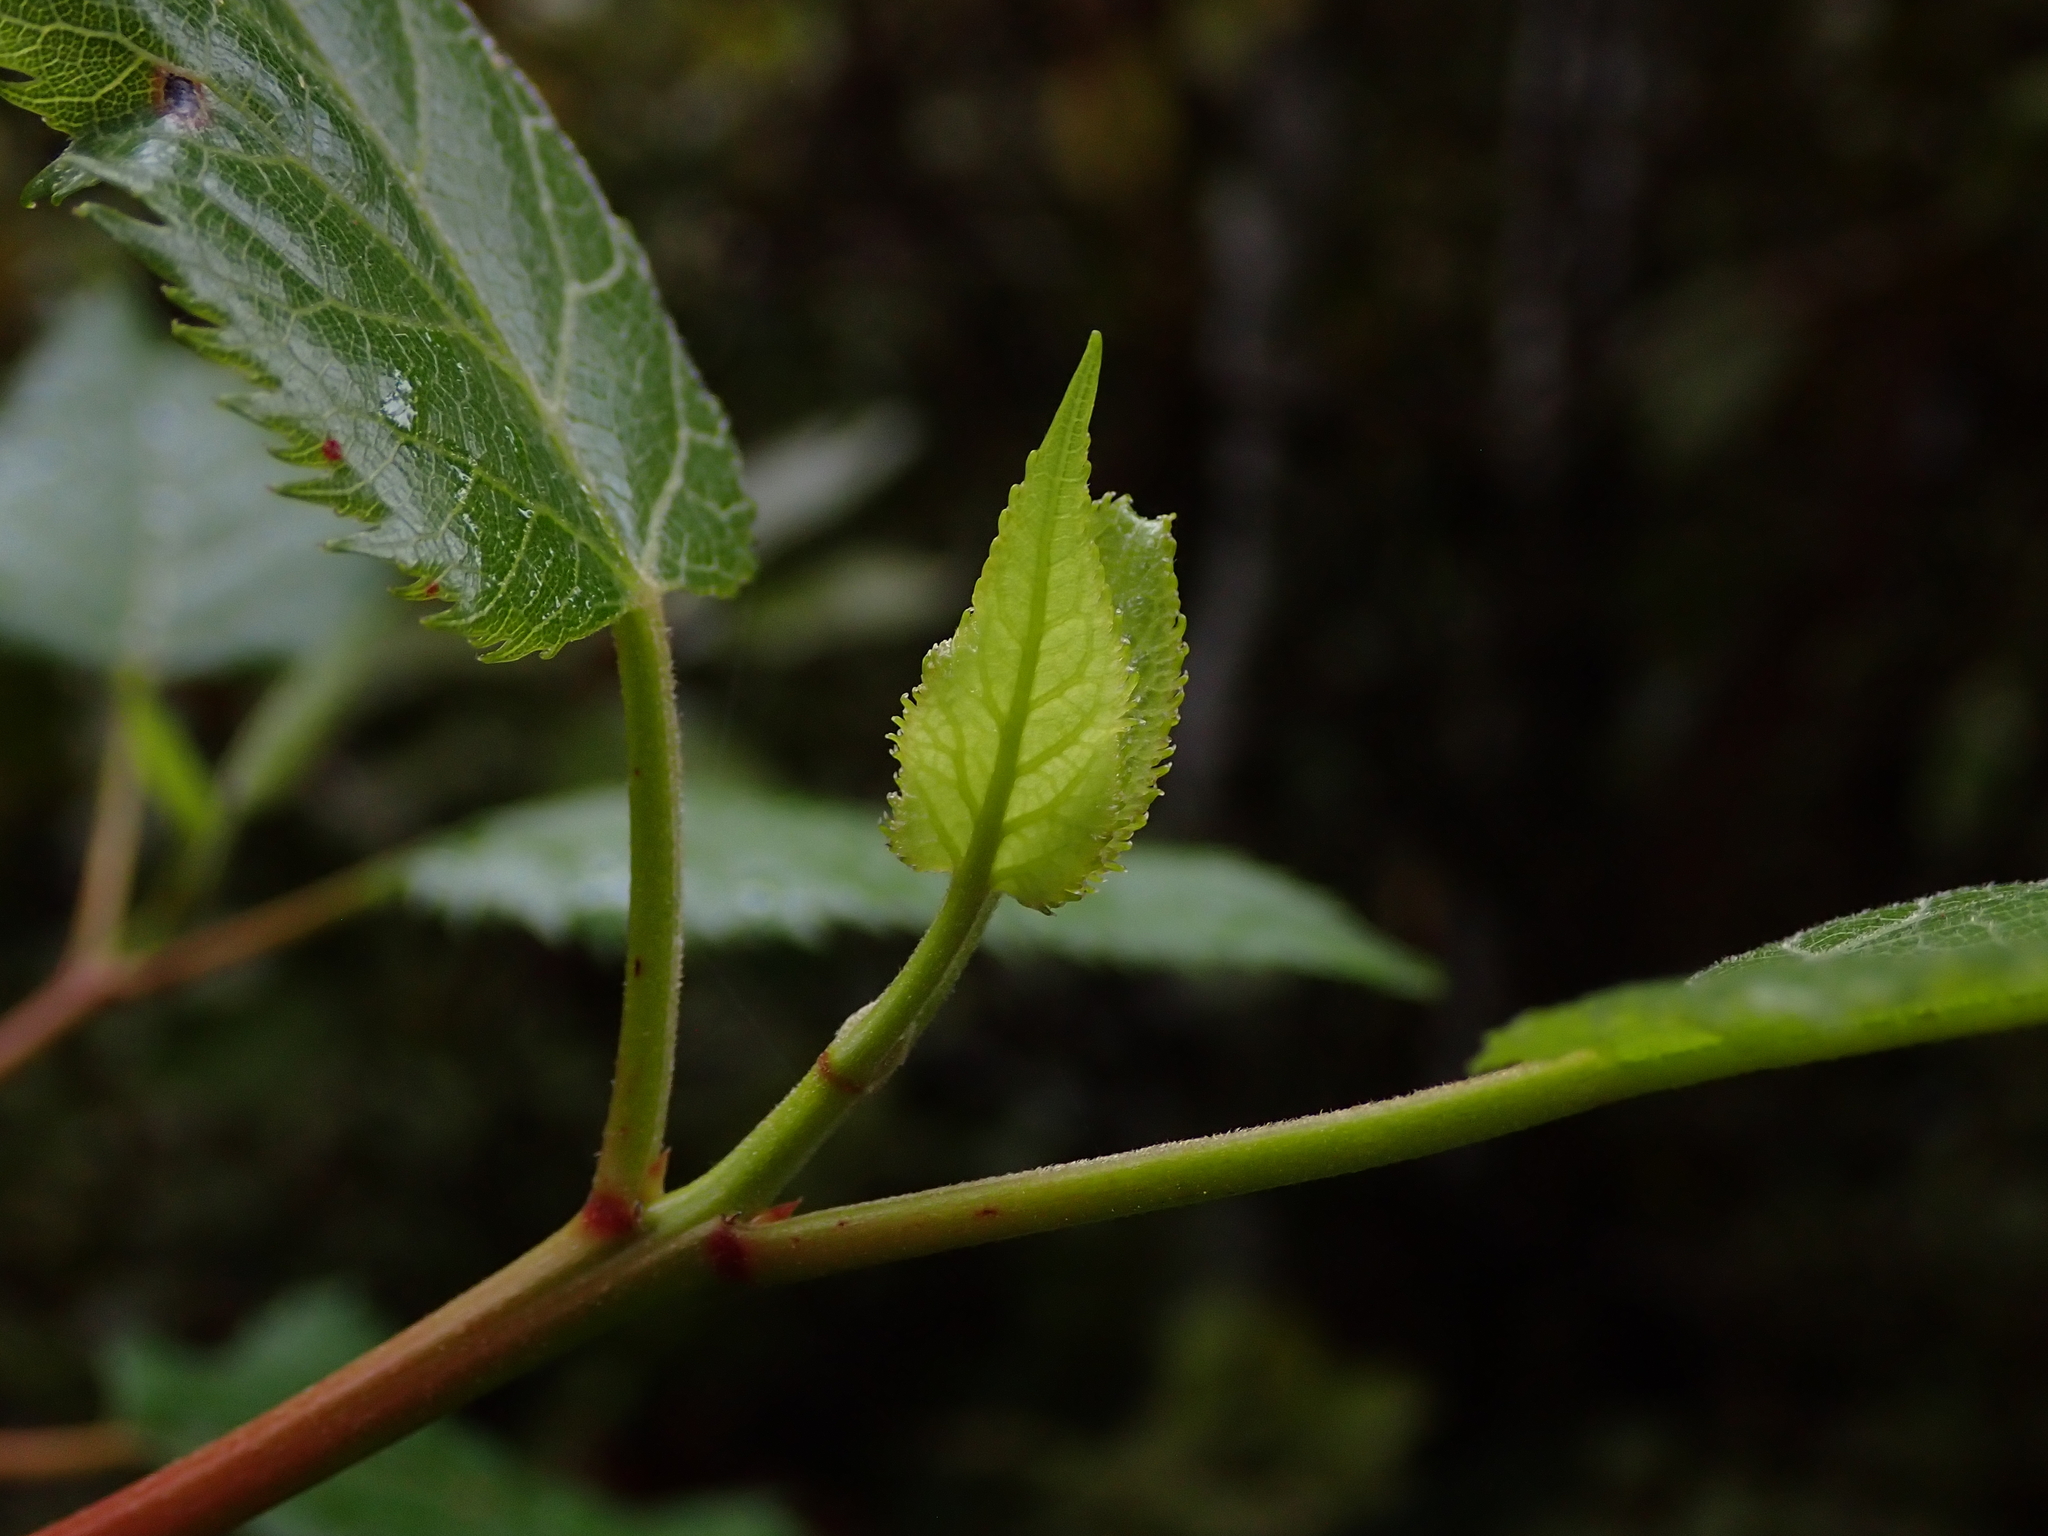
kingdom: Plantae
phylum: Tracheophyta
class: Magnoliopsida
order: Oxalidales
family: Elaeocarpaceae
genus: Aristotelia
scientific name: Aristotelia serrata
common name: New zealand wineberry
